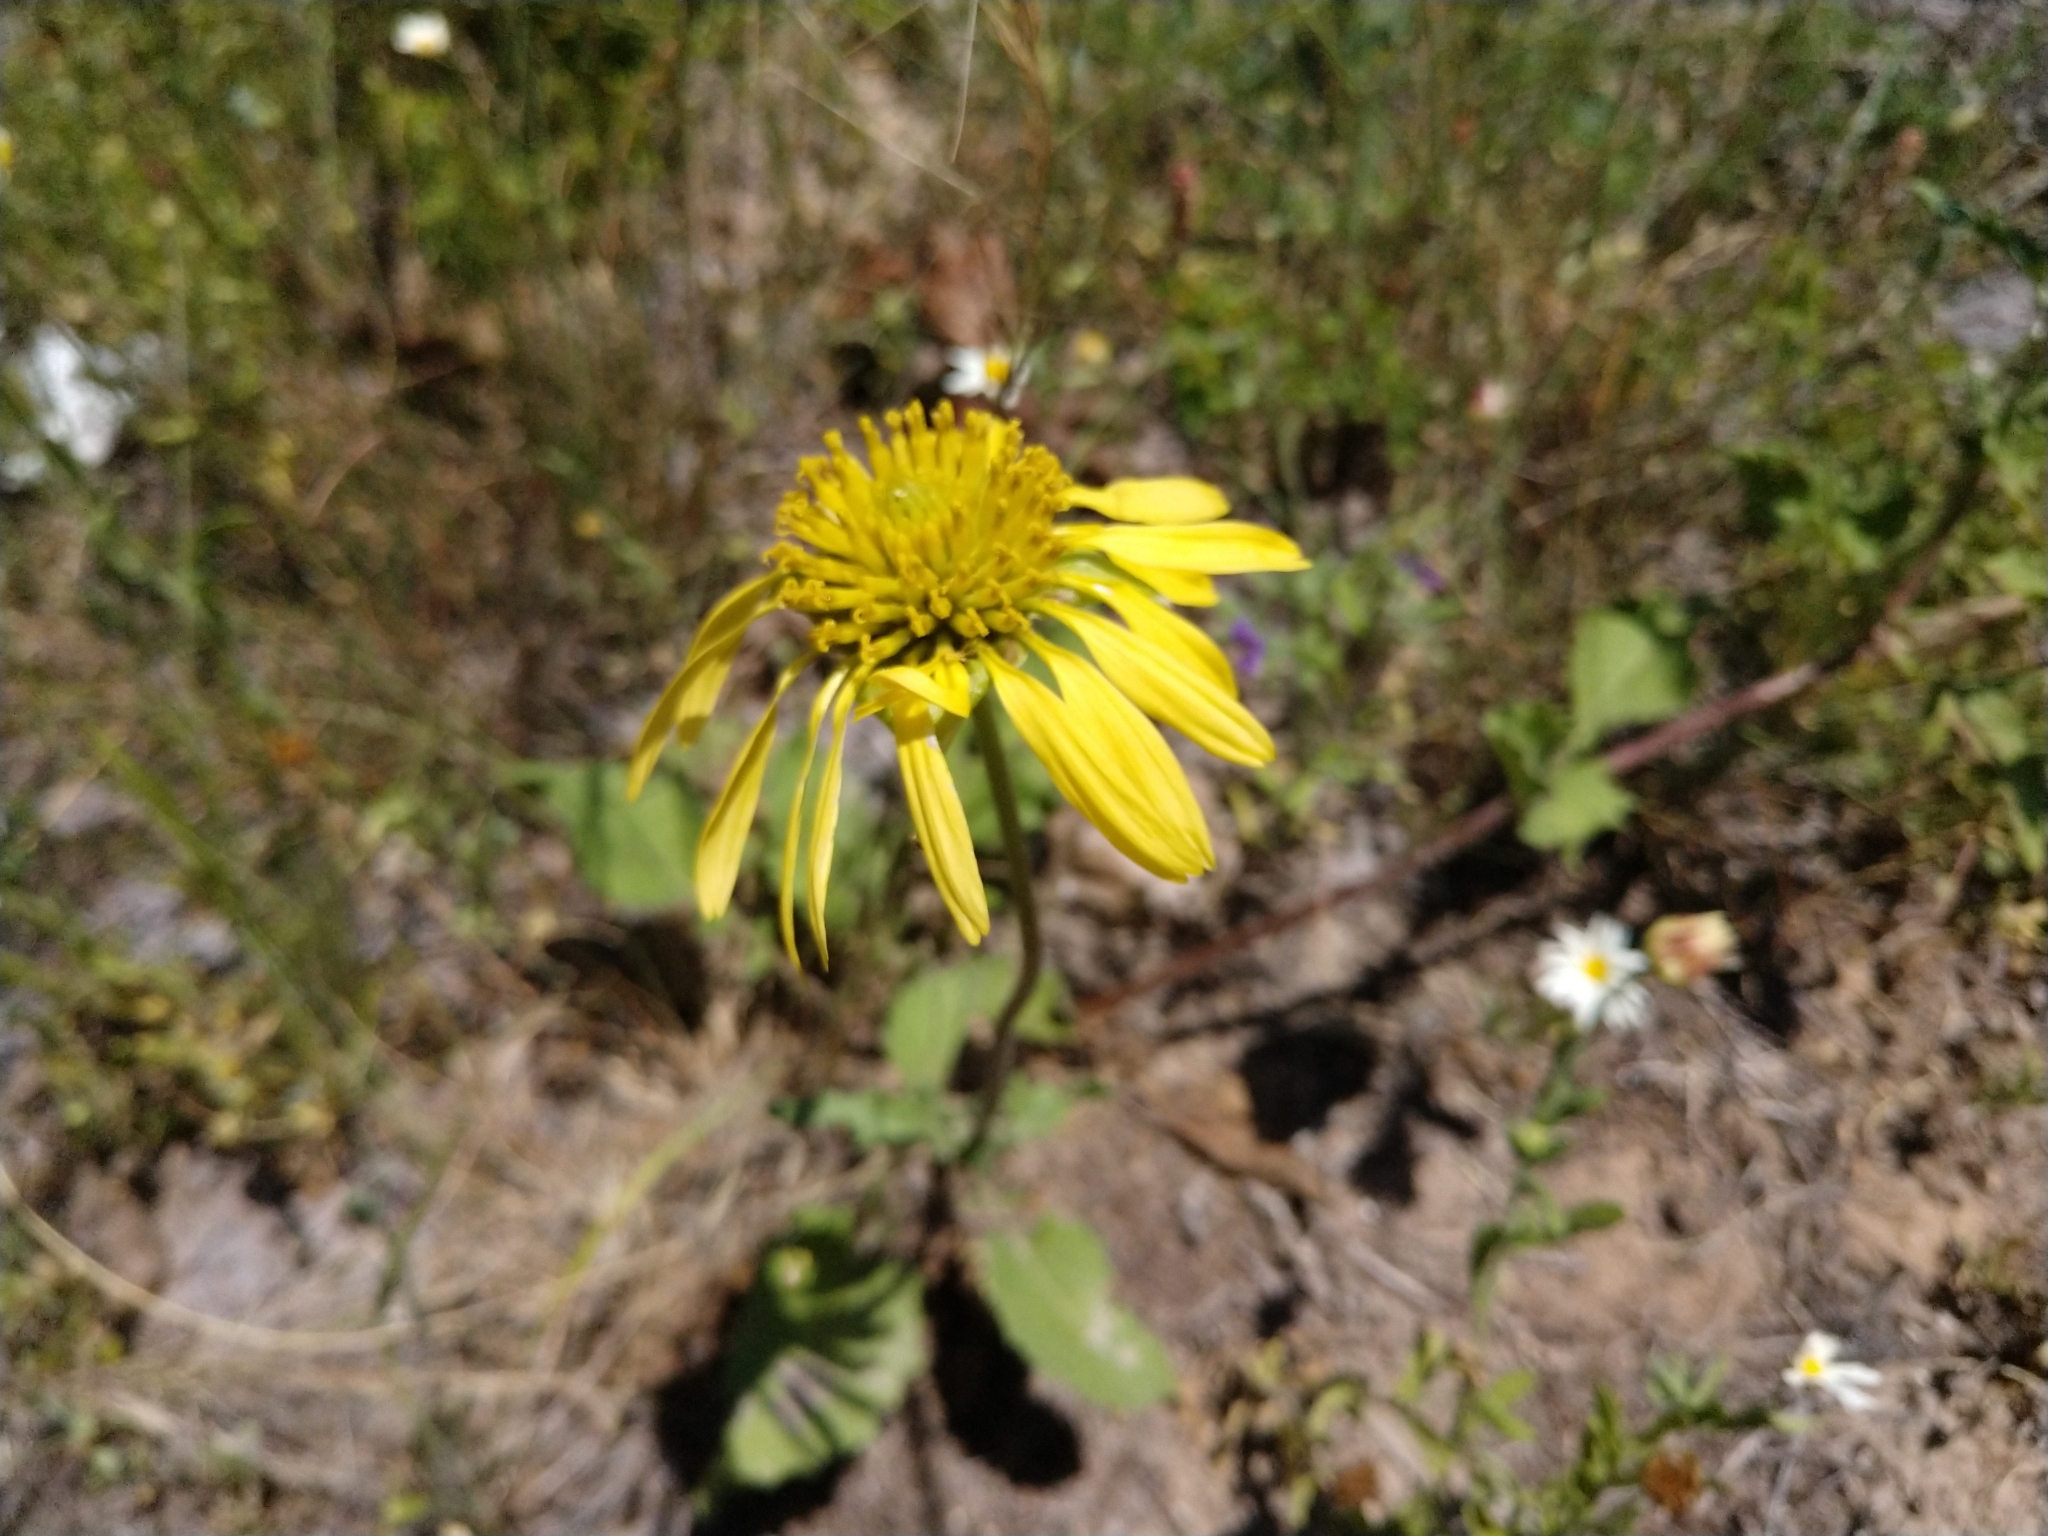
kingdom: Plantae
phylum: Tracheophyta
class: Magnoliopsida
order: Asterales
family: Asteraceae
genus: Tetragonotheca
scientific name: Tetragonotheca repanda
